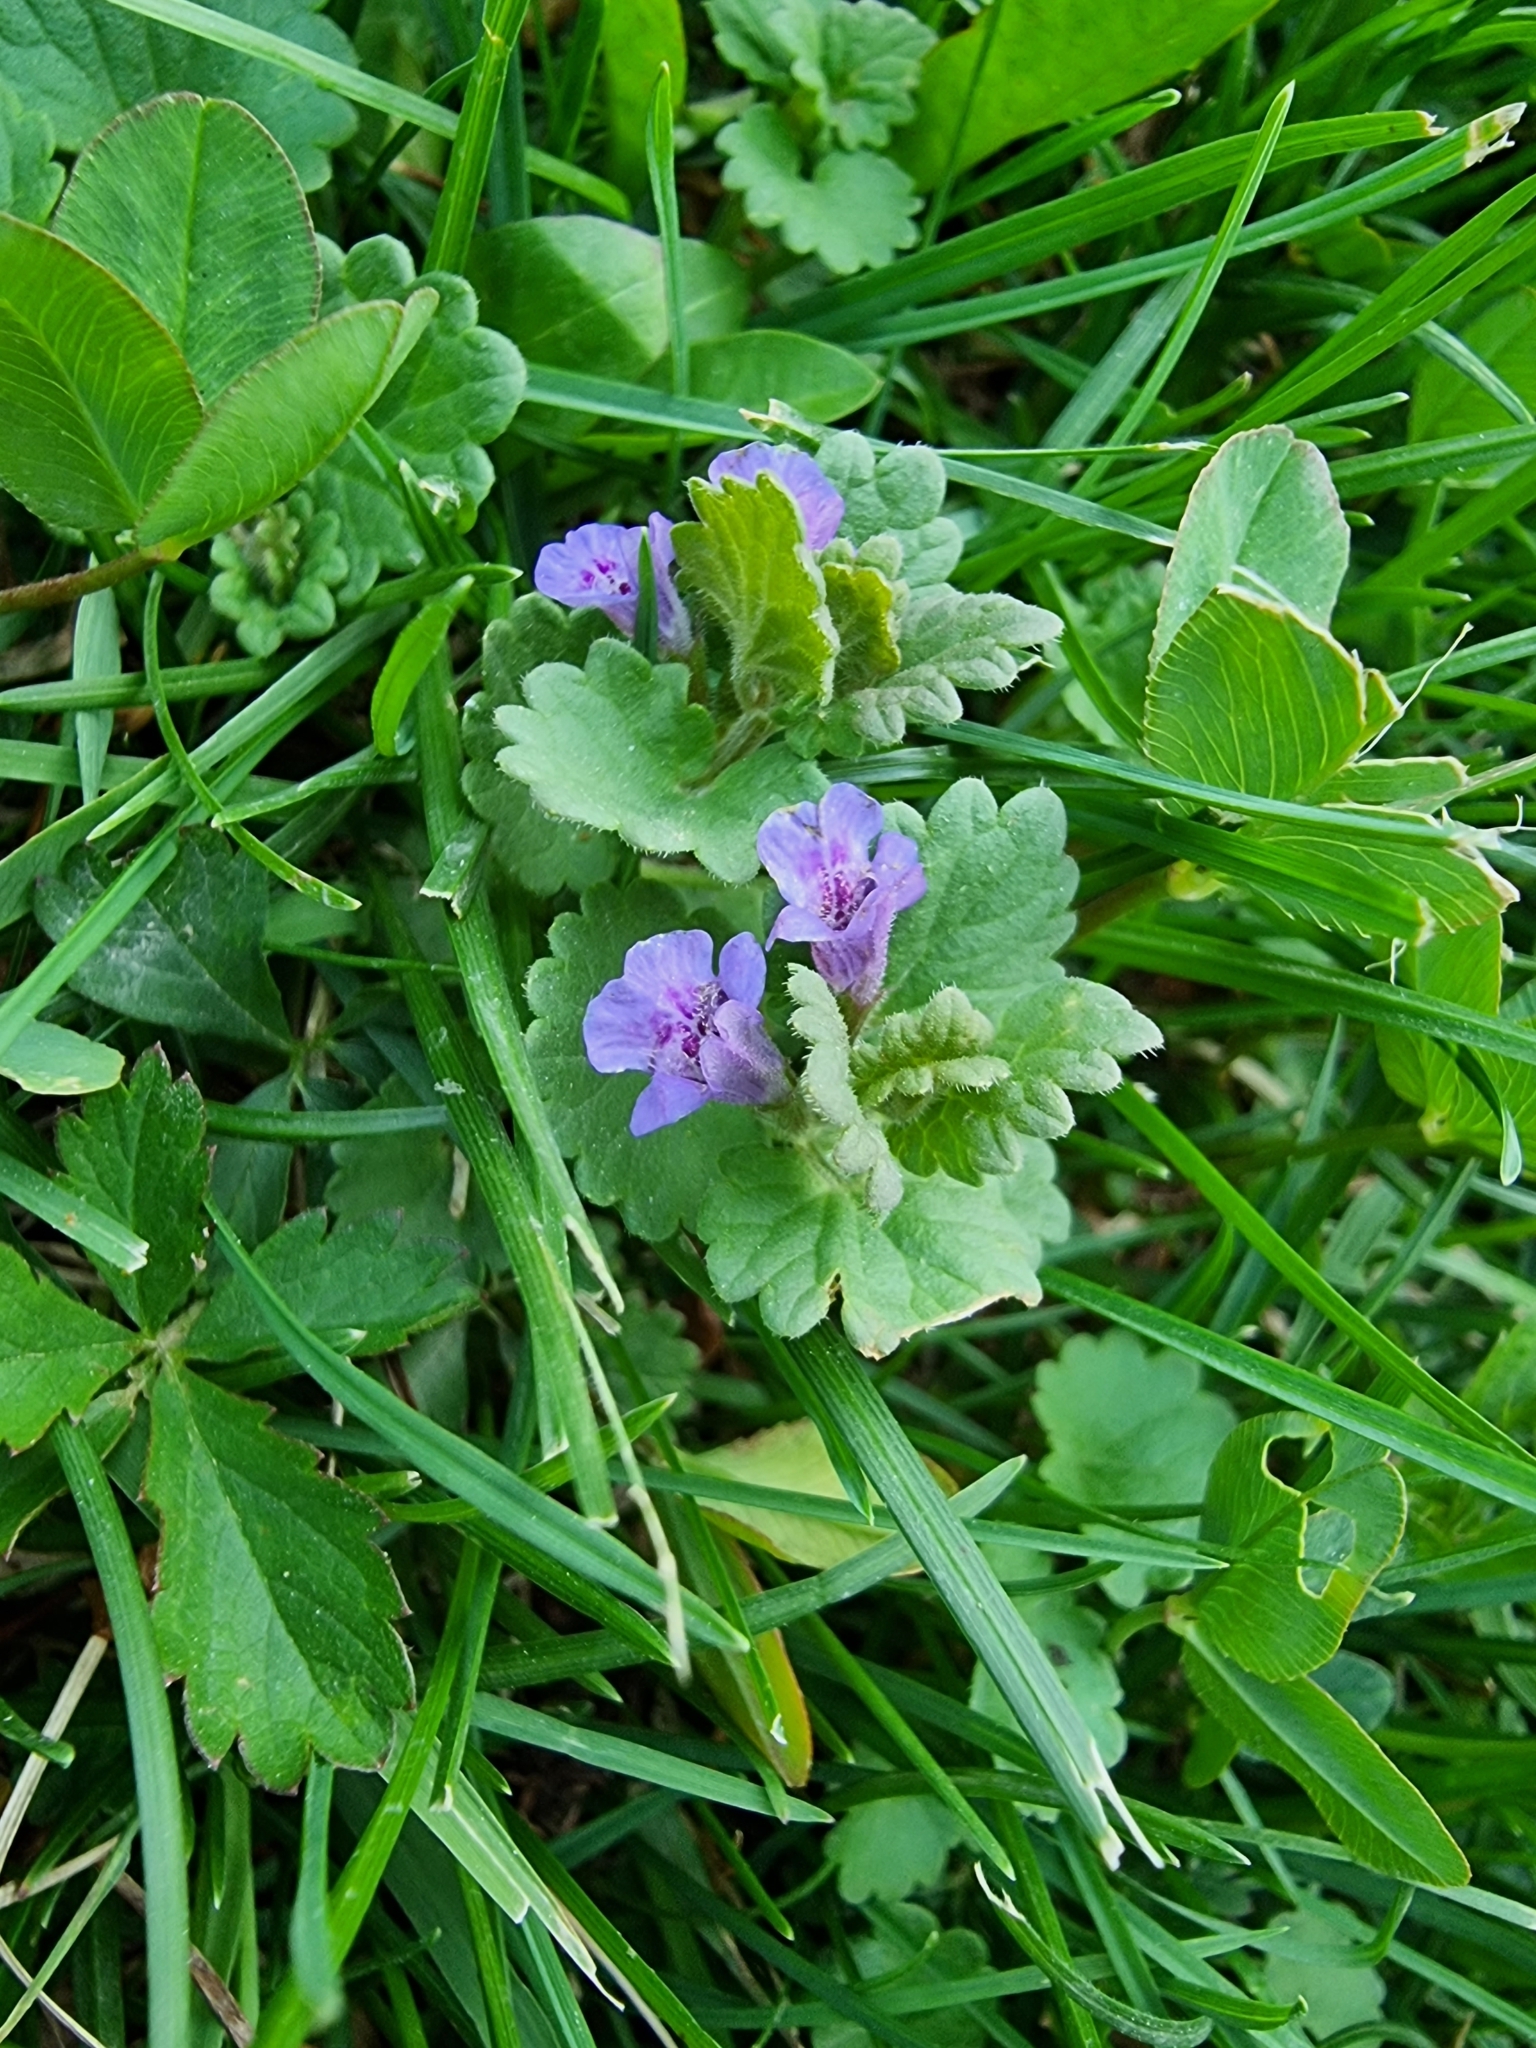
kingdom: Plantae
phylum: Tracheophyta
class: Magnoliopsida
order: Lamiales
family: Lamiaceae
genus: Glechoma
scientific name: Glechoma hederacea
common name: Ground ivy
